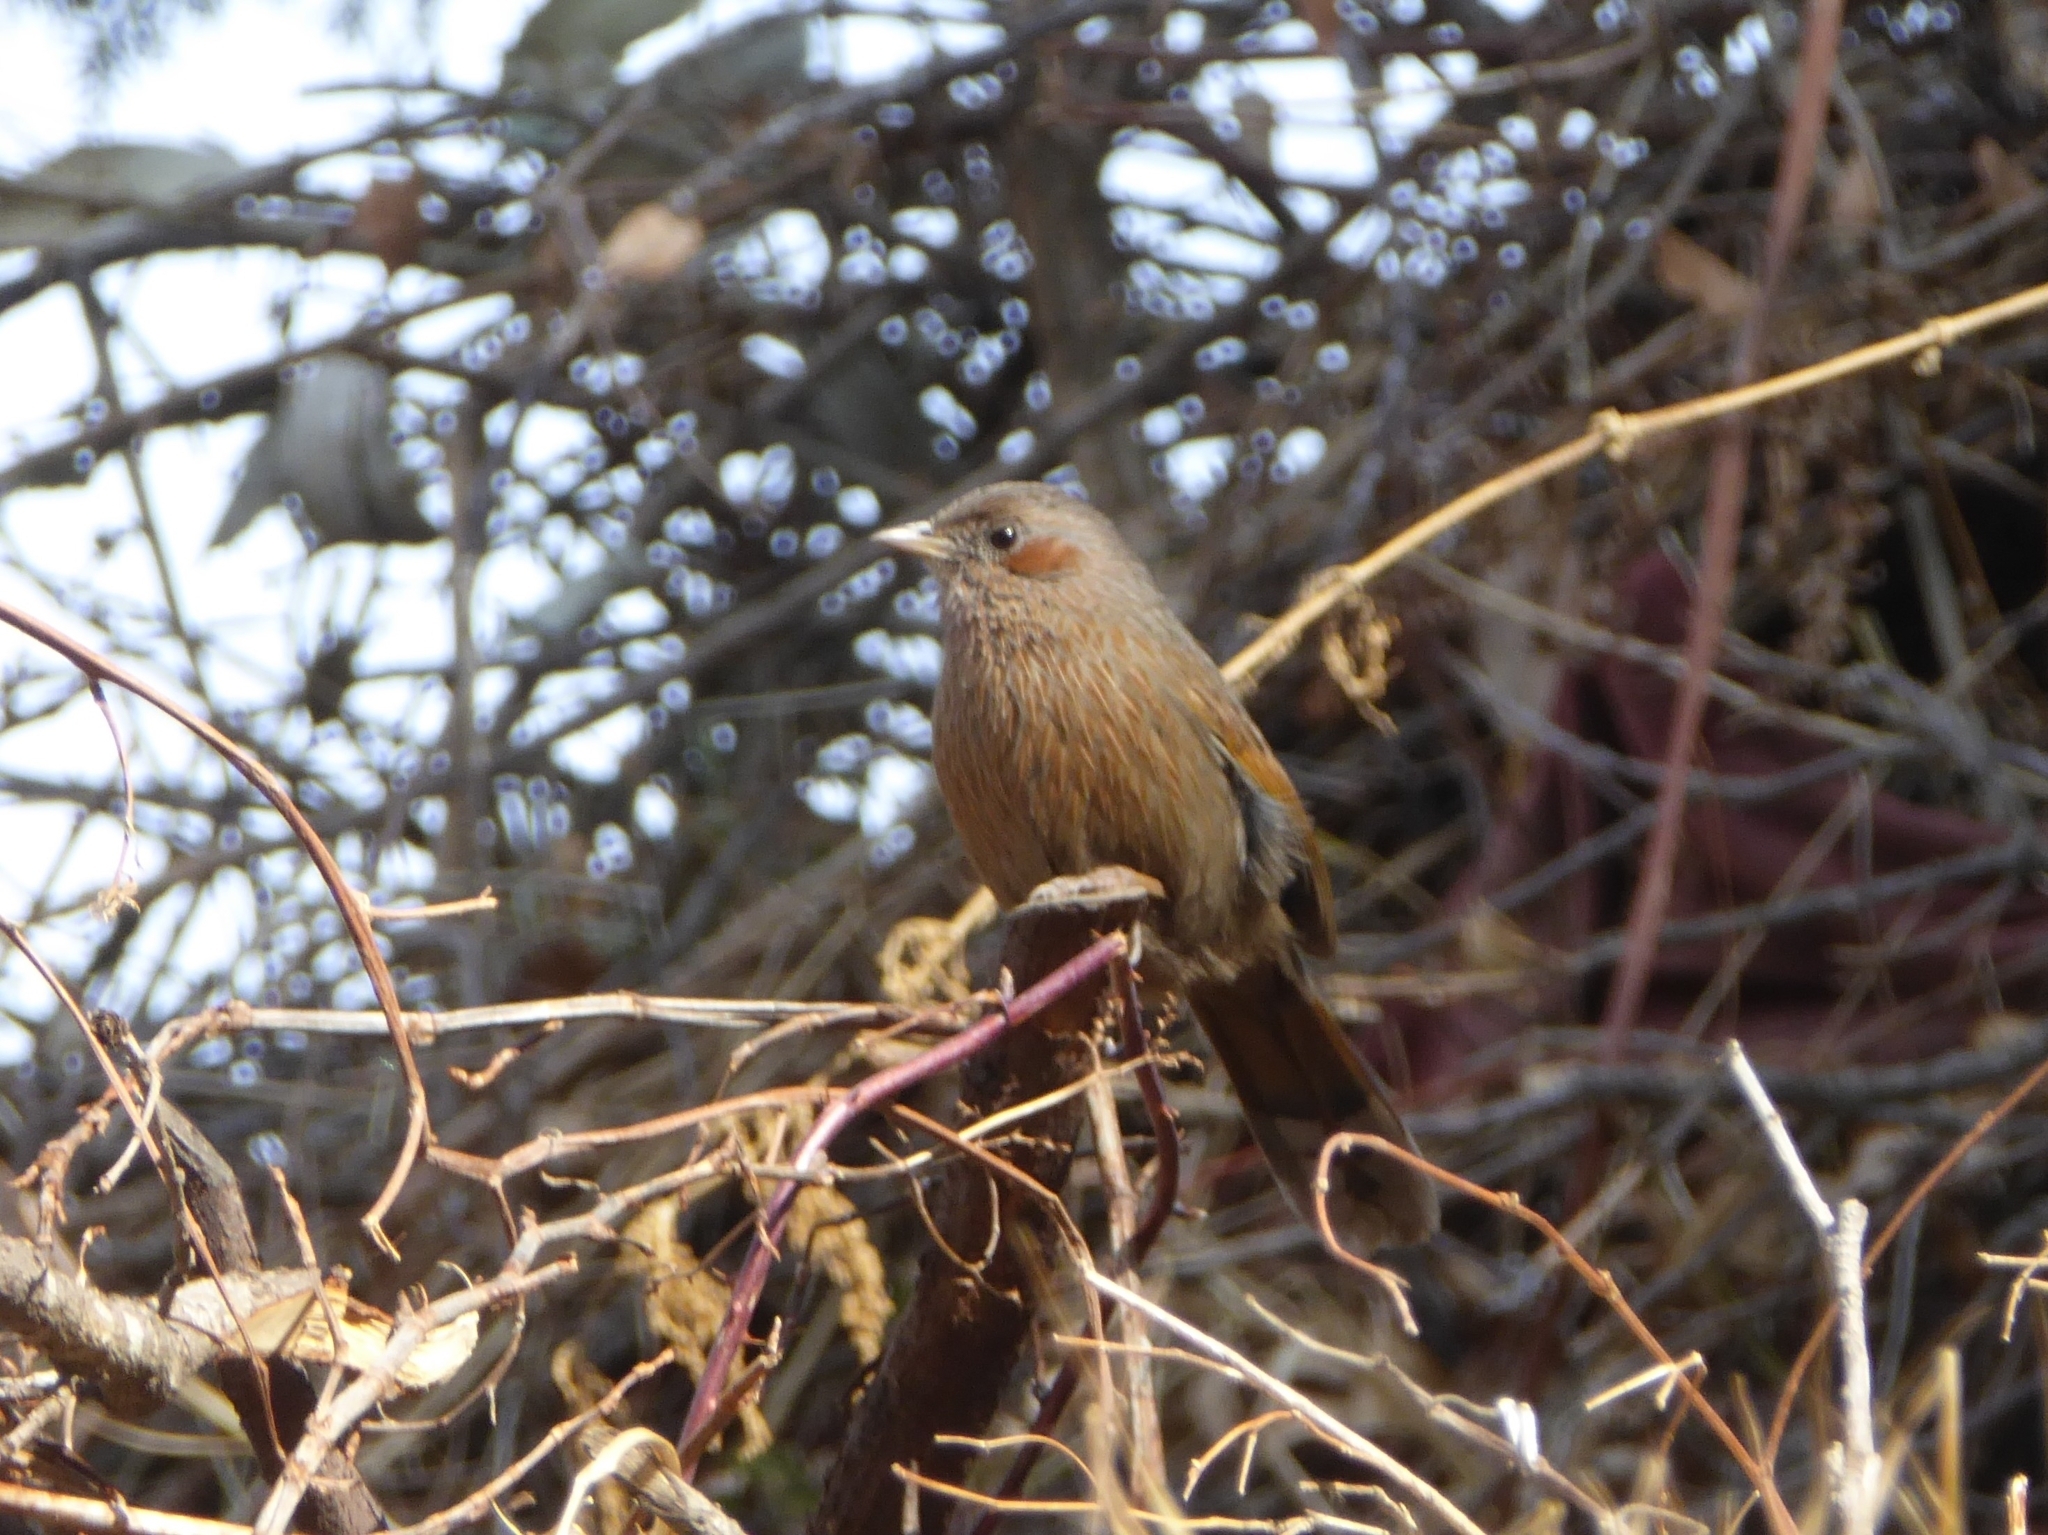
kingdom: Animalia
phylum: Chordata
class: Aves
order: Passeriformes
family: Leiothrichidae
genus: Trochalopteron
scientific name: Trochalopteron lineatum
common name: Streaked laughingthrush
